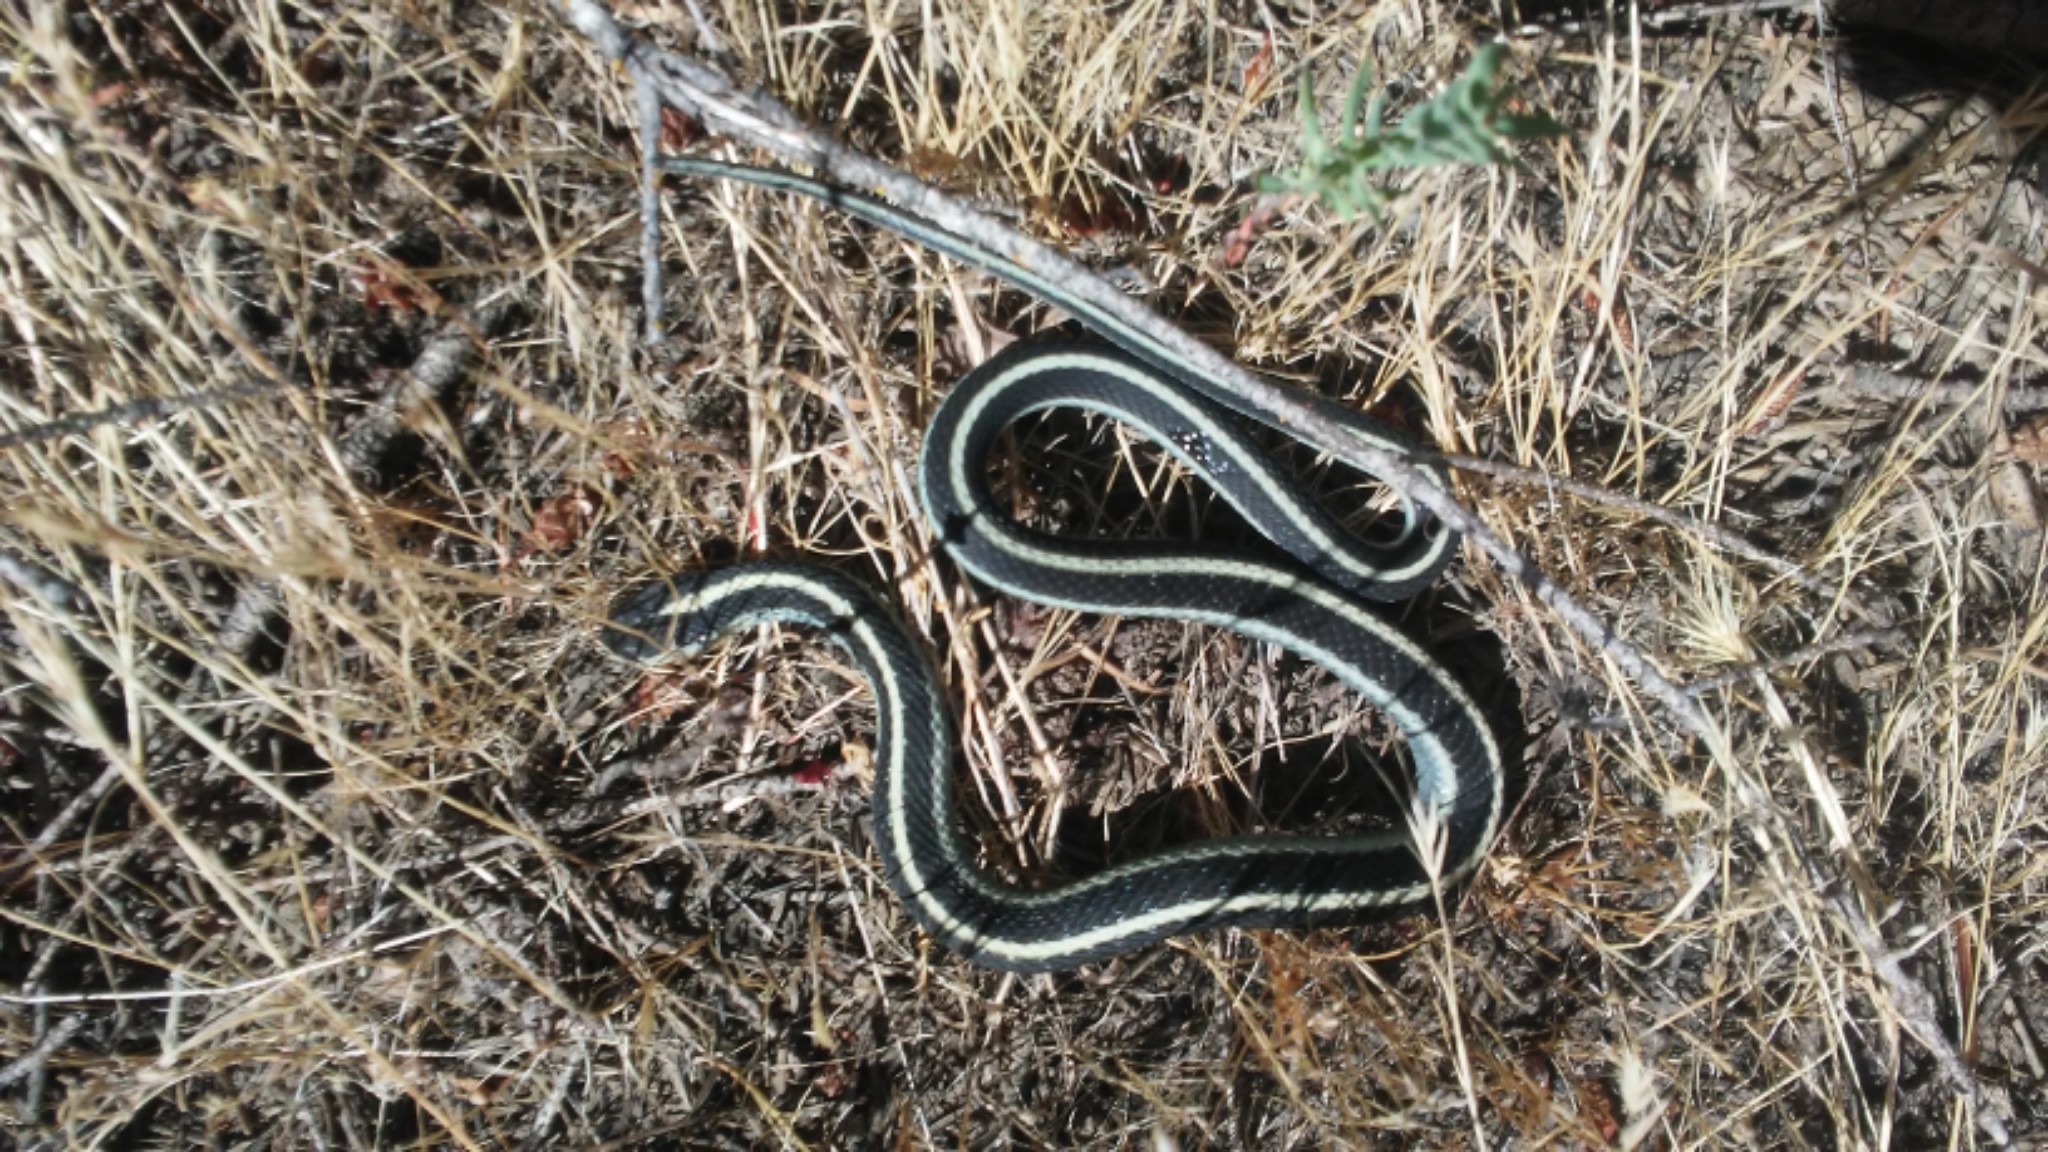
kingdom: Animalia
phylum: Chordata
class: Squamata
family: Colubridae
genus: Thamnophis
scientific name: Thamnophis elegans
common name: Western terrestrial garter snake
